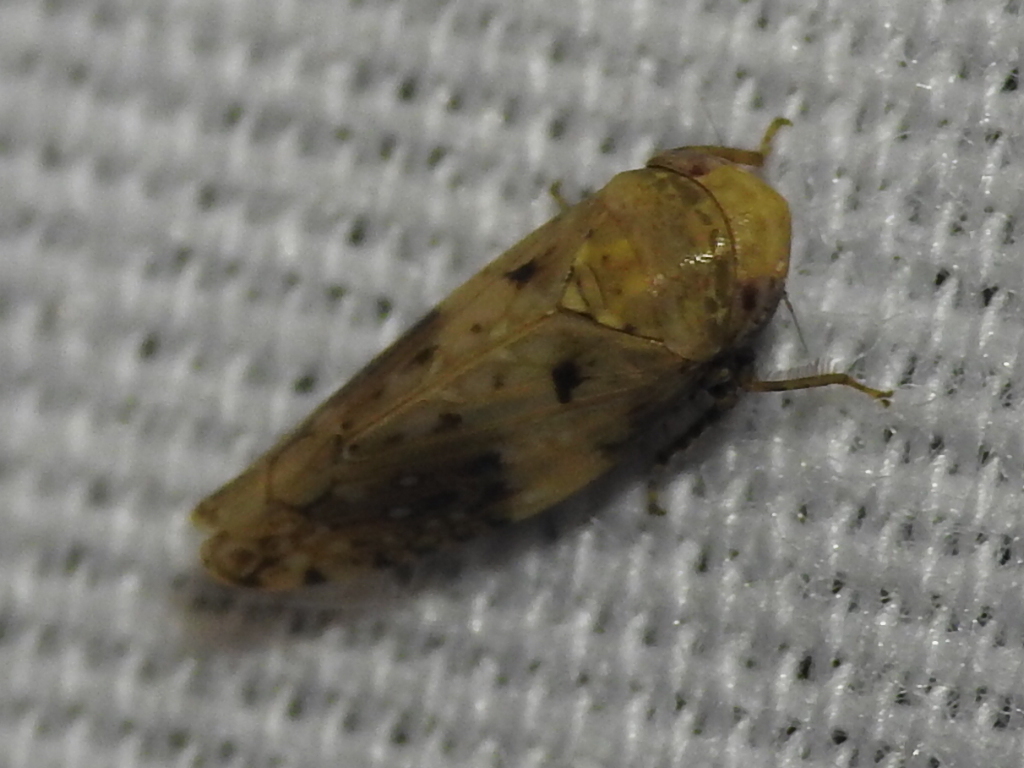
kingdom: Animalia
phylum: Arthropoda
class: Insecta
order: Hemiptera
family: Cicadellidae
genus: Menosoma
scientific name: Menosoma cinctum
